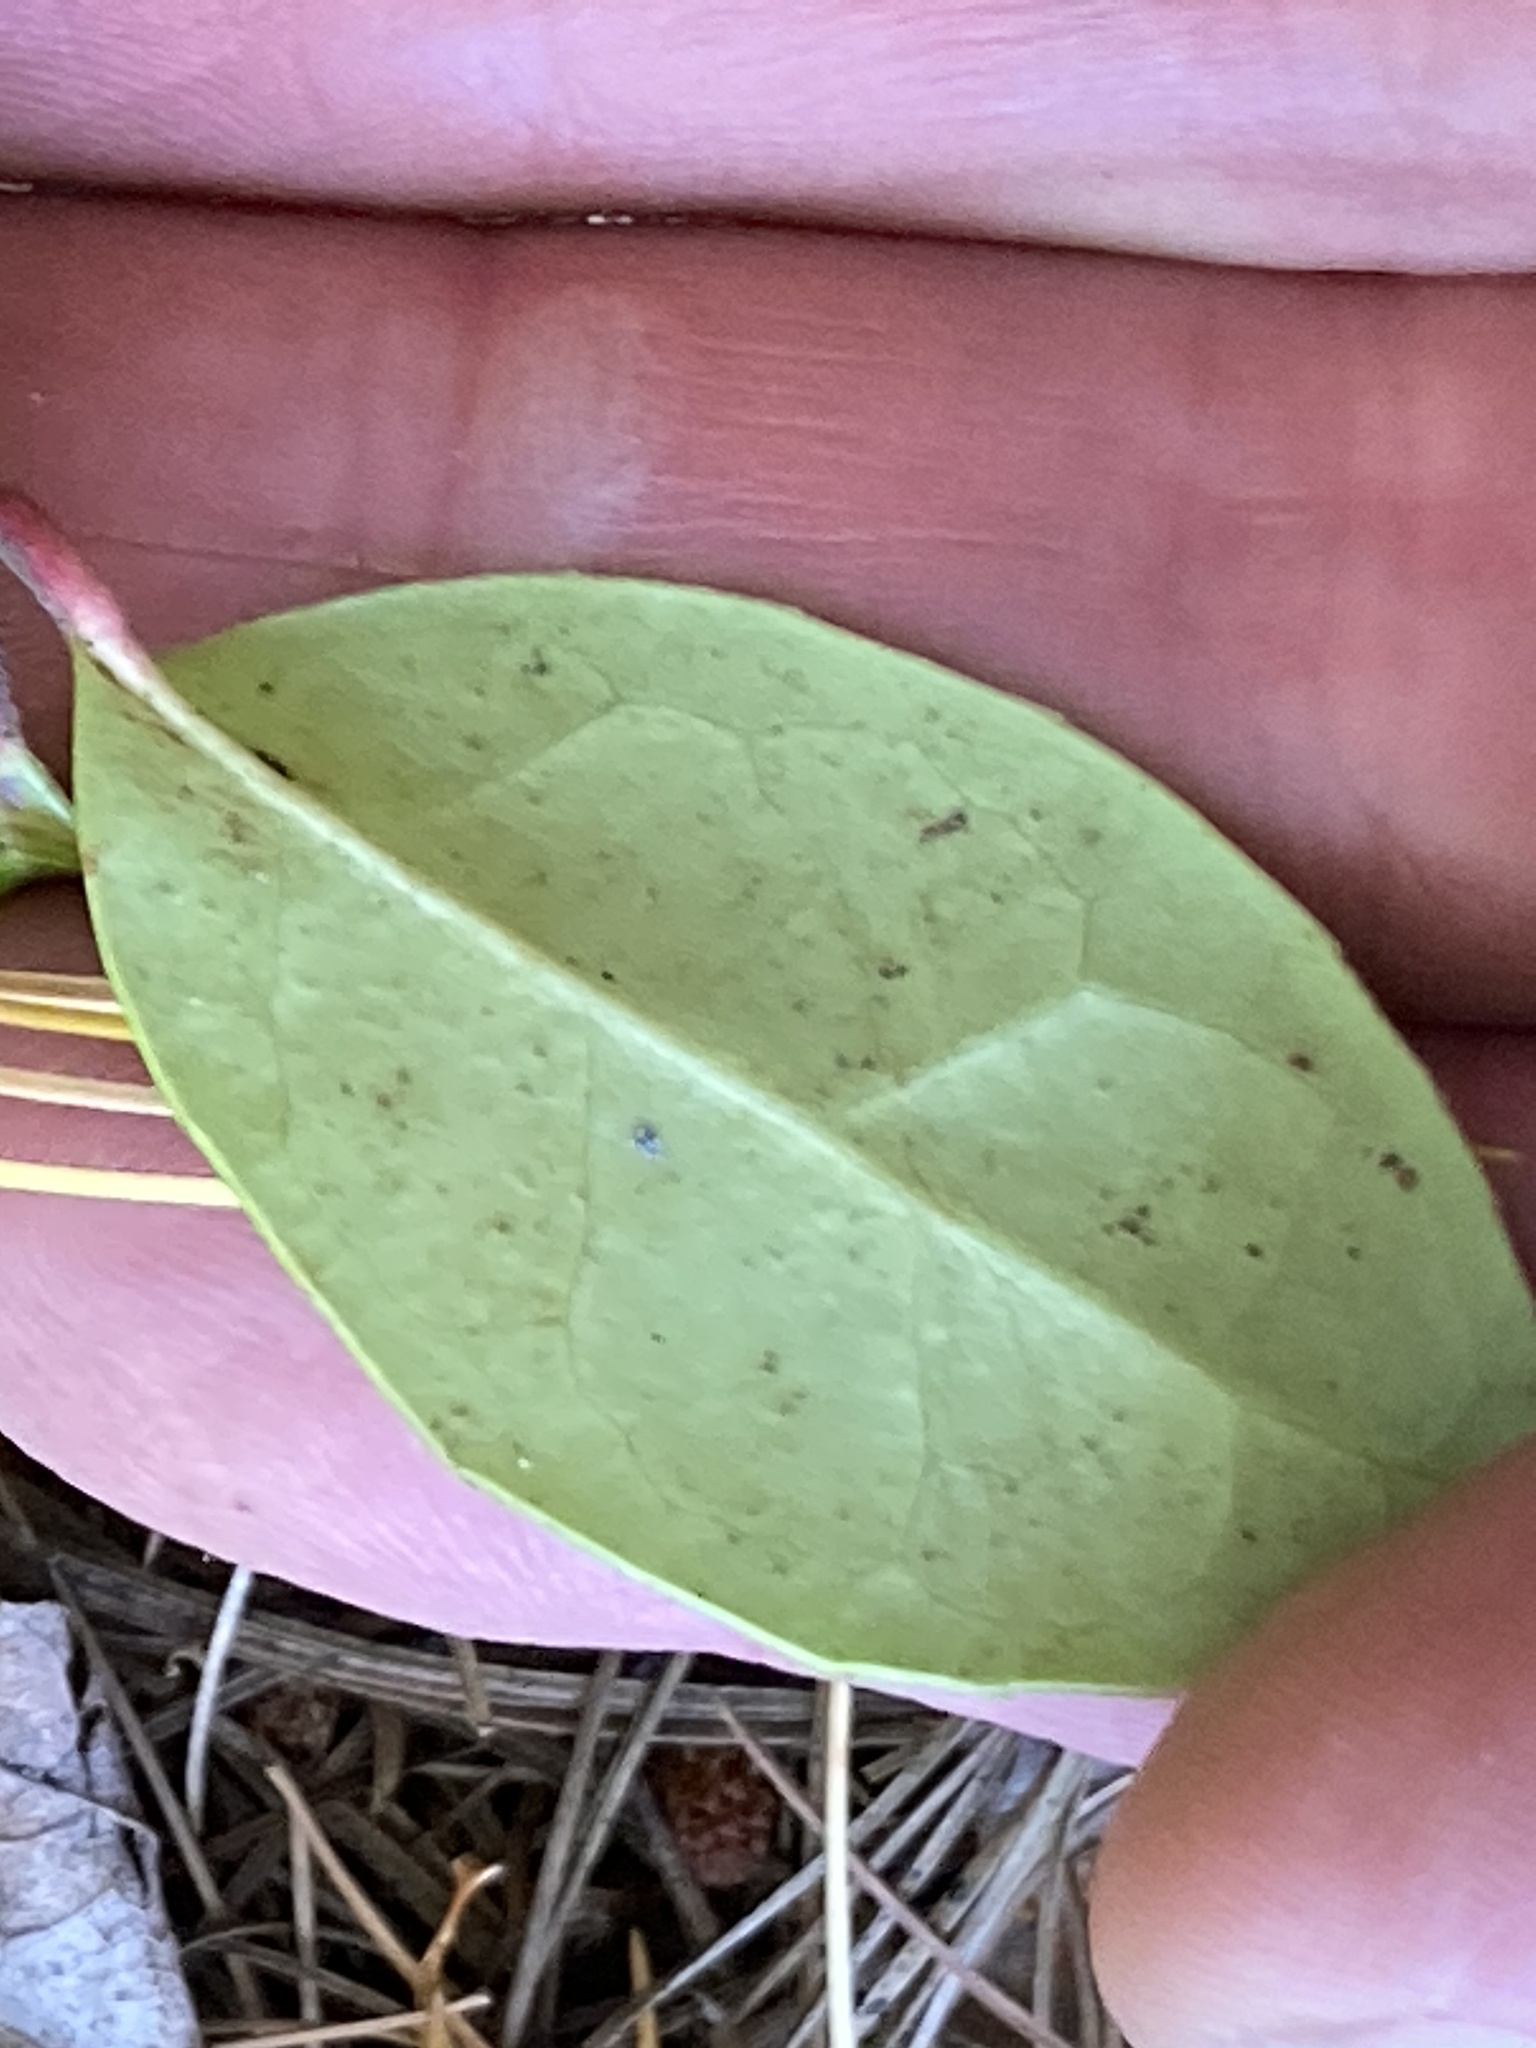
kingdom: Plantae
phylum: Tracheophyta
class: Magnoliopsida
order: Ericales
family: Ericaceae
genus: Gaultheria
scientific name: Gaultheria procumbens
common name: Checkerberry
